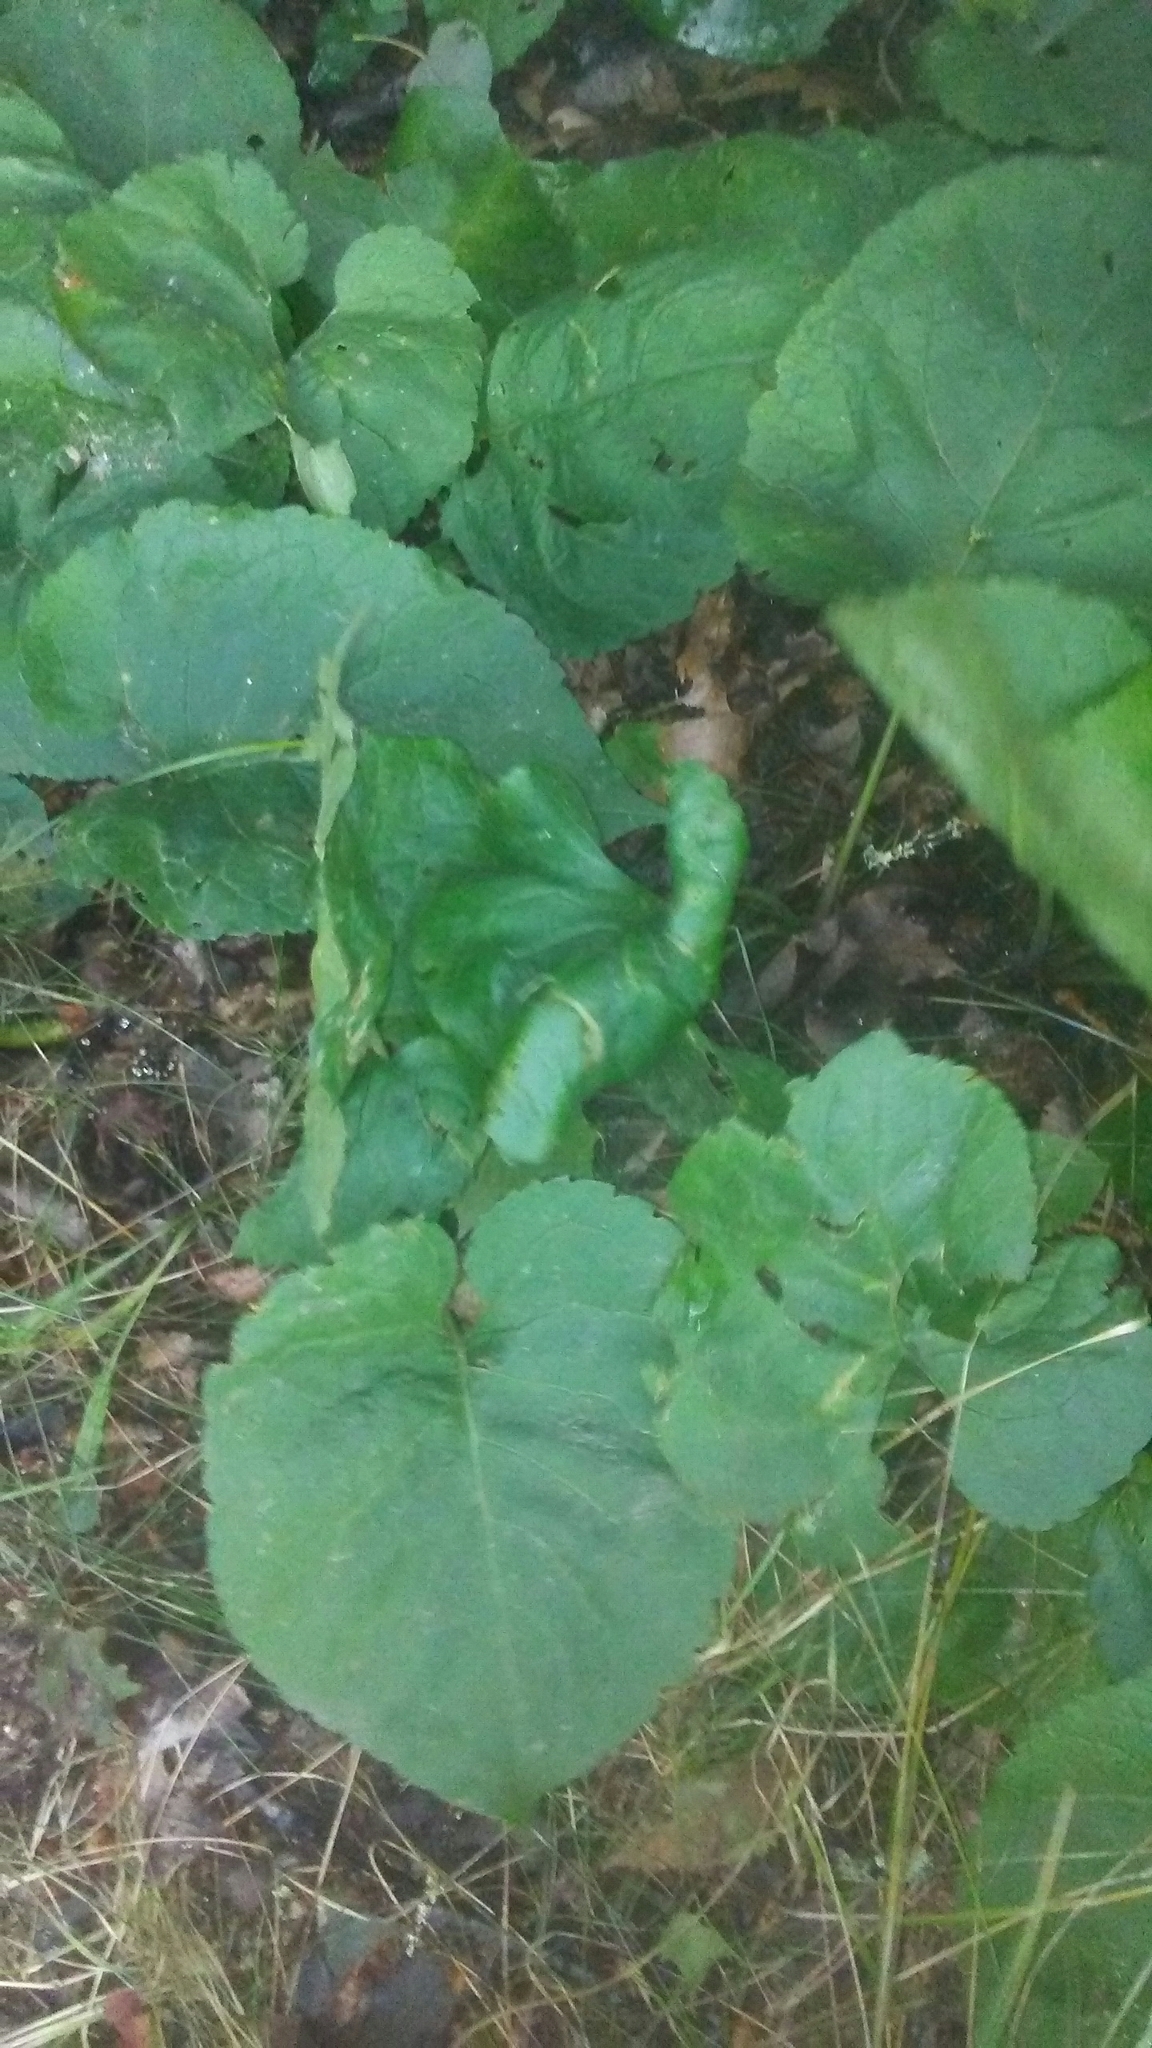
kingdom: Plantae
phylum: Tracheophyta
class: Magnoliopsida
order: Asterales
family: Asteraceae
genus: Eurybia
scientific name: Eurybia macrophylla
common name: Big-leaved aster
